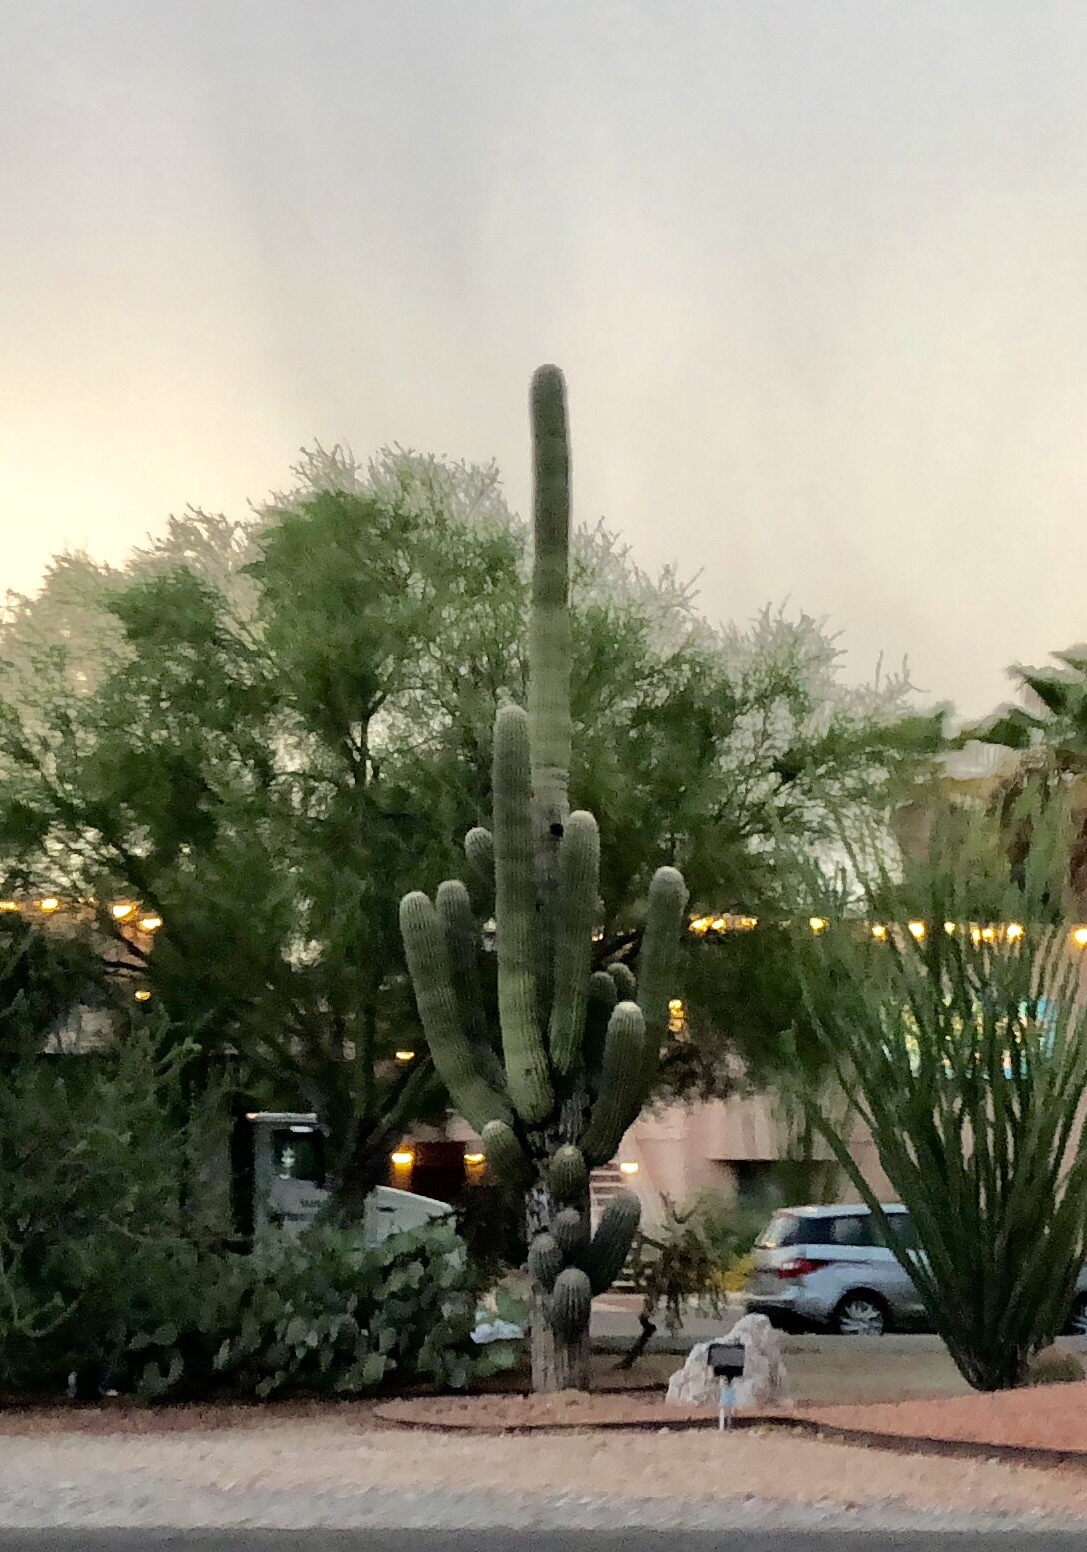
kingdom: Plantae
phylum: Tracheophyta
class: Magnoliopsida
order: Caryophyllales
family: Cactaceae
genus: Carnegiea
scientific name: Carnegiea gigantea
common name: Saguaro
